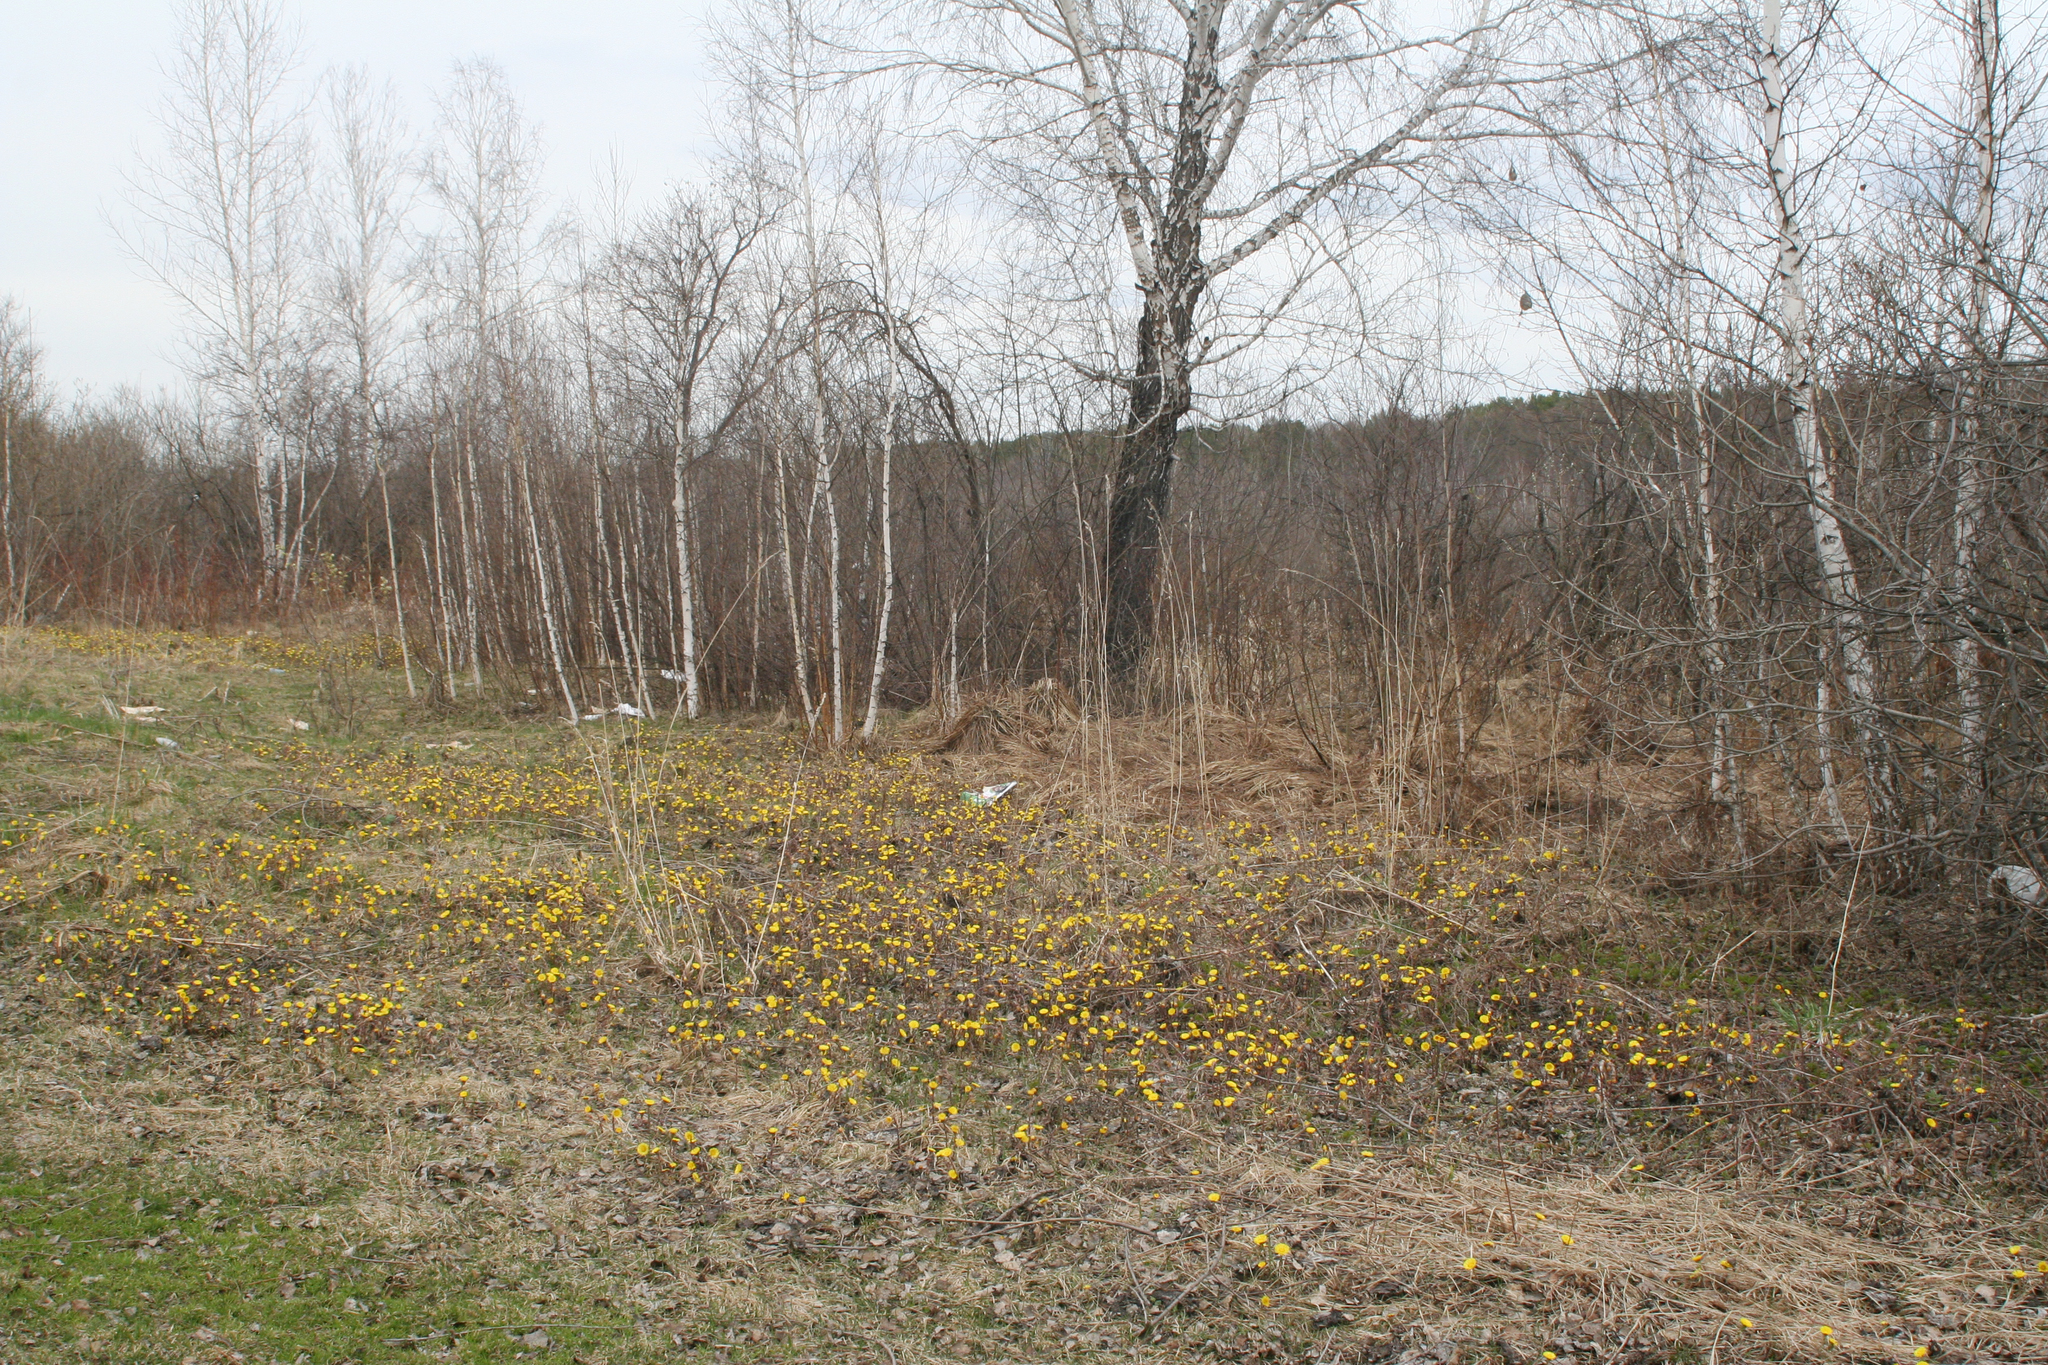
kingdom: Plantae
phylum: Tracheophyta
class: Magnoliopsida
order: Asterales
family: Asteraceae
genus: Tussilago
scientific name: Tussilago farfara
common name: Coltsfoot
